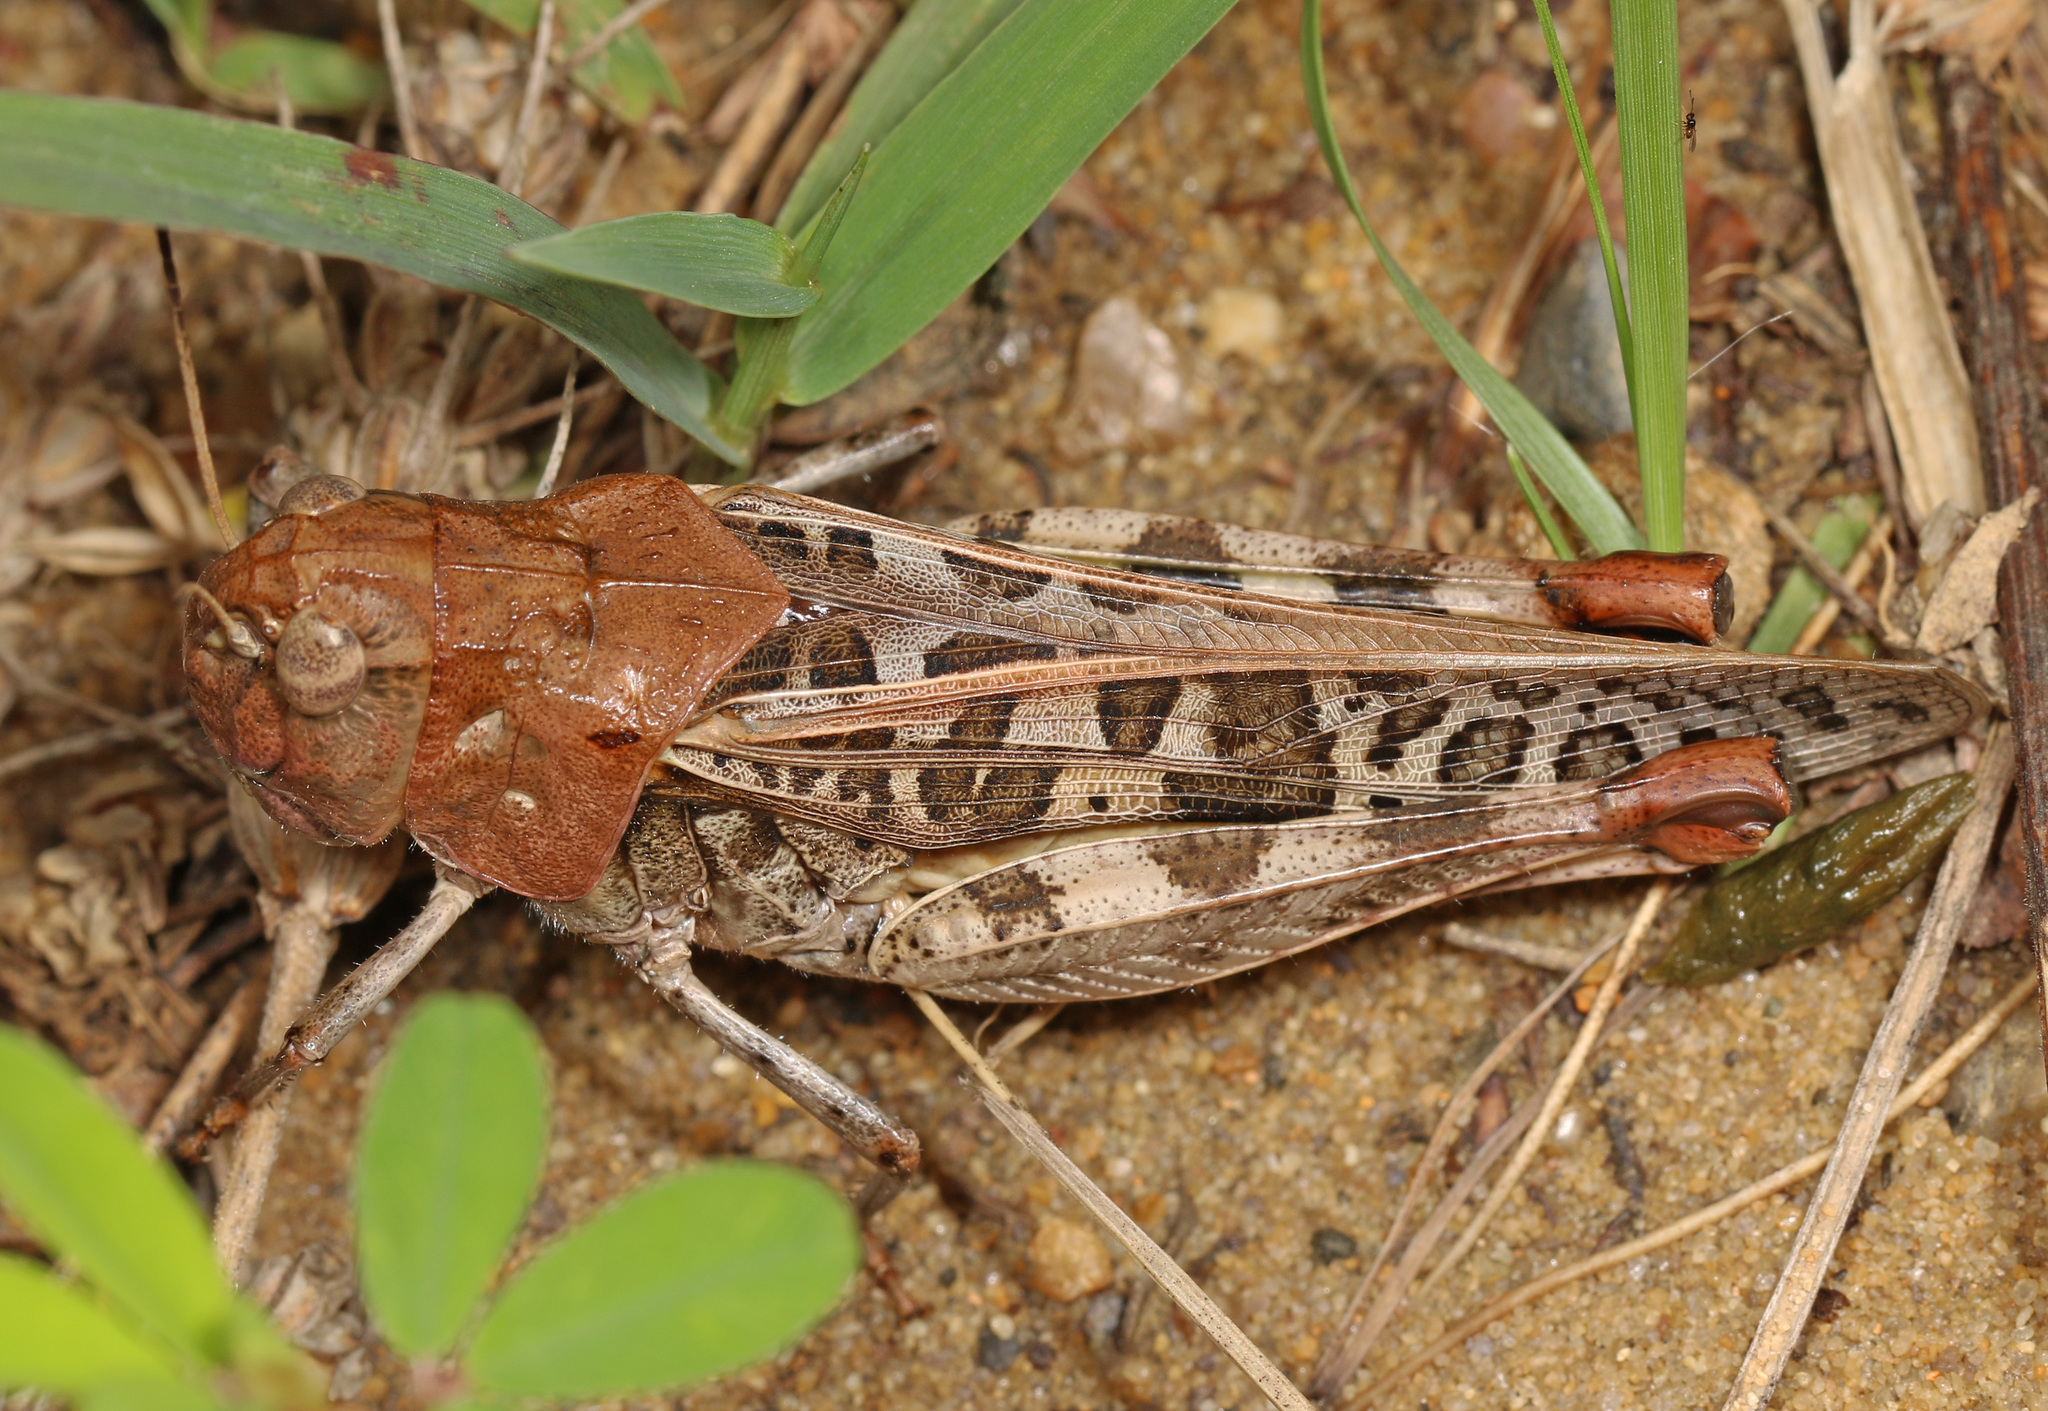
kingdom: Animalia
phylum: Arthropoda
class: Insecta
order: Orthoptera
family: Acrididae
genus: Hippiscus
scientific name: Hippiscus ocelote
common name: Wrinkled grasshopper
